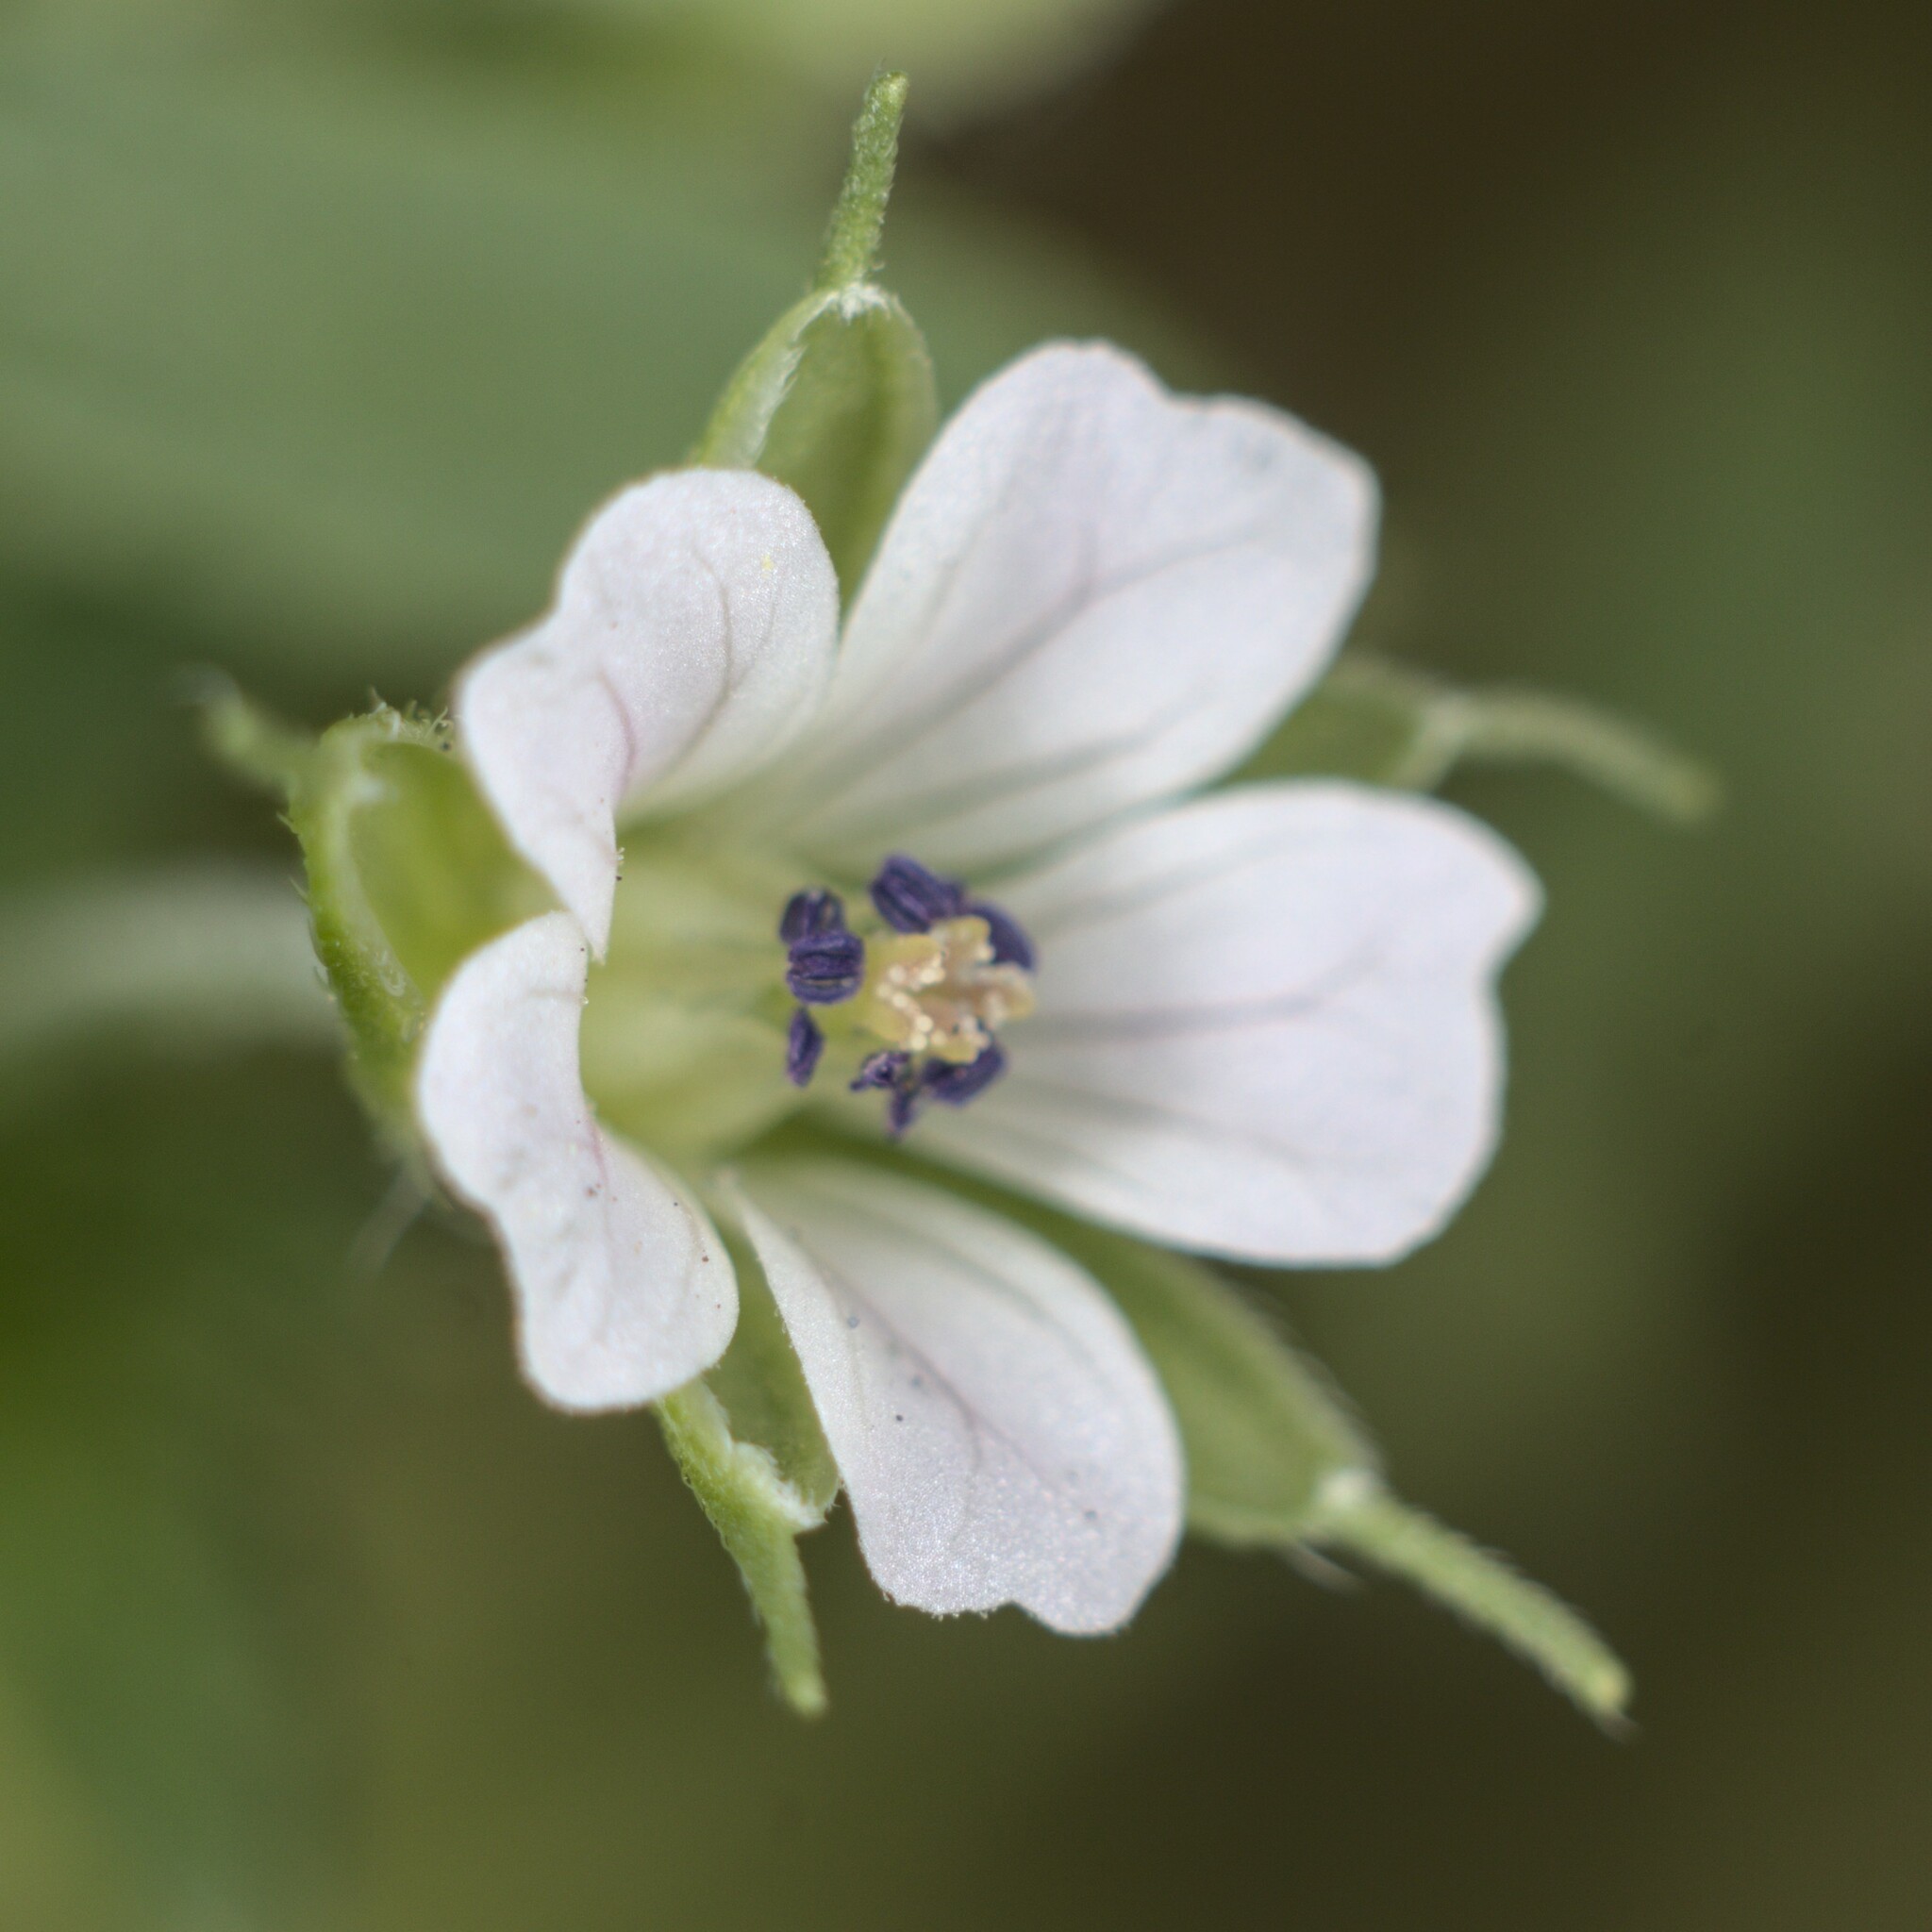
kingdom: Plantae
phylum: Tracheophyta
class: Magnoliopsida
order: Geraniales
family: Geraniaceae
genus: Geranium
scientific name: Geranium sibiricum
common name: Siberian crane's-bill
